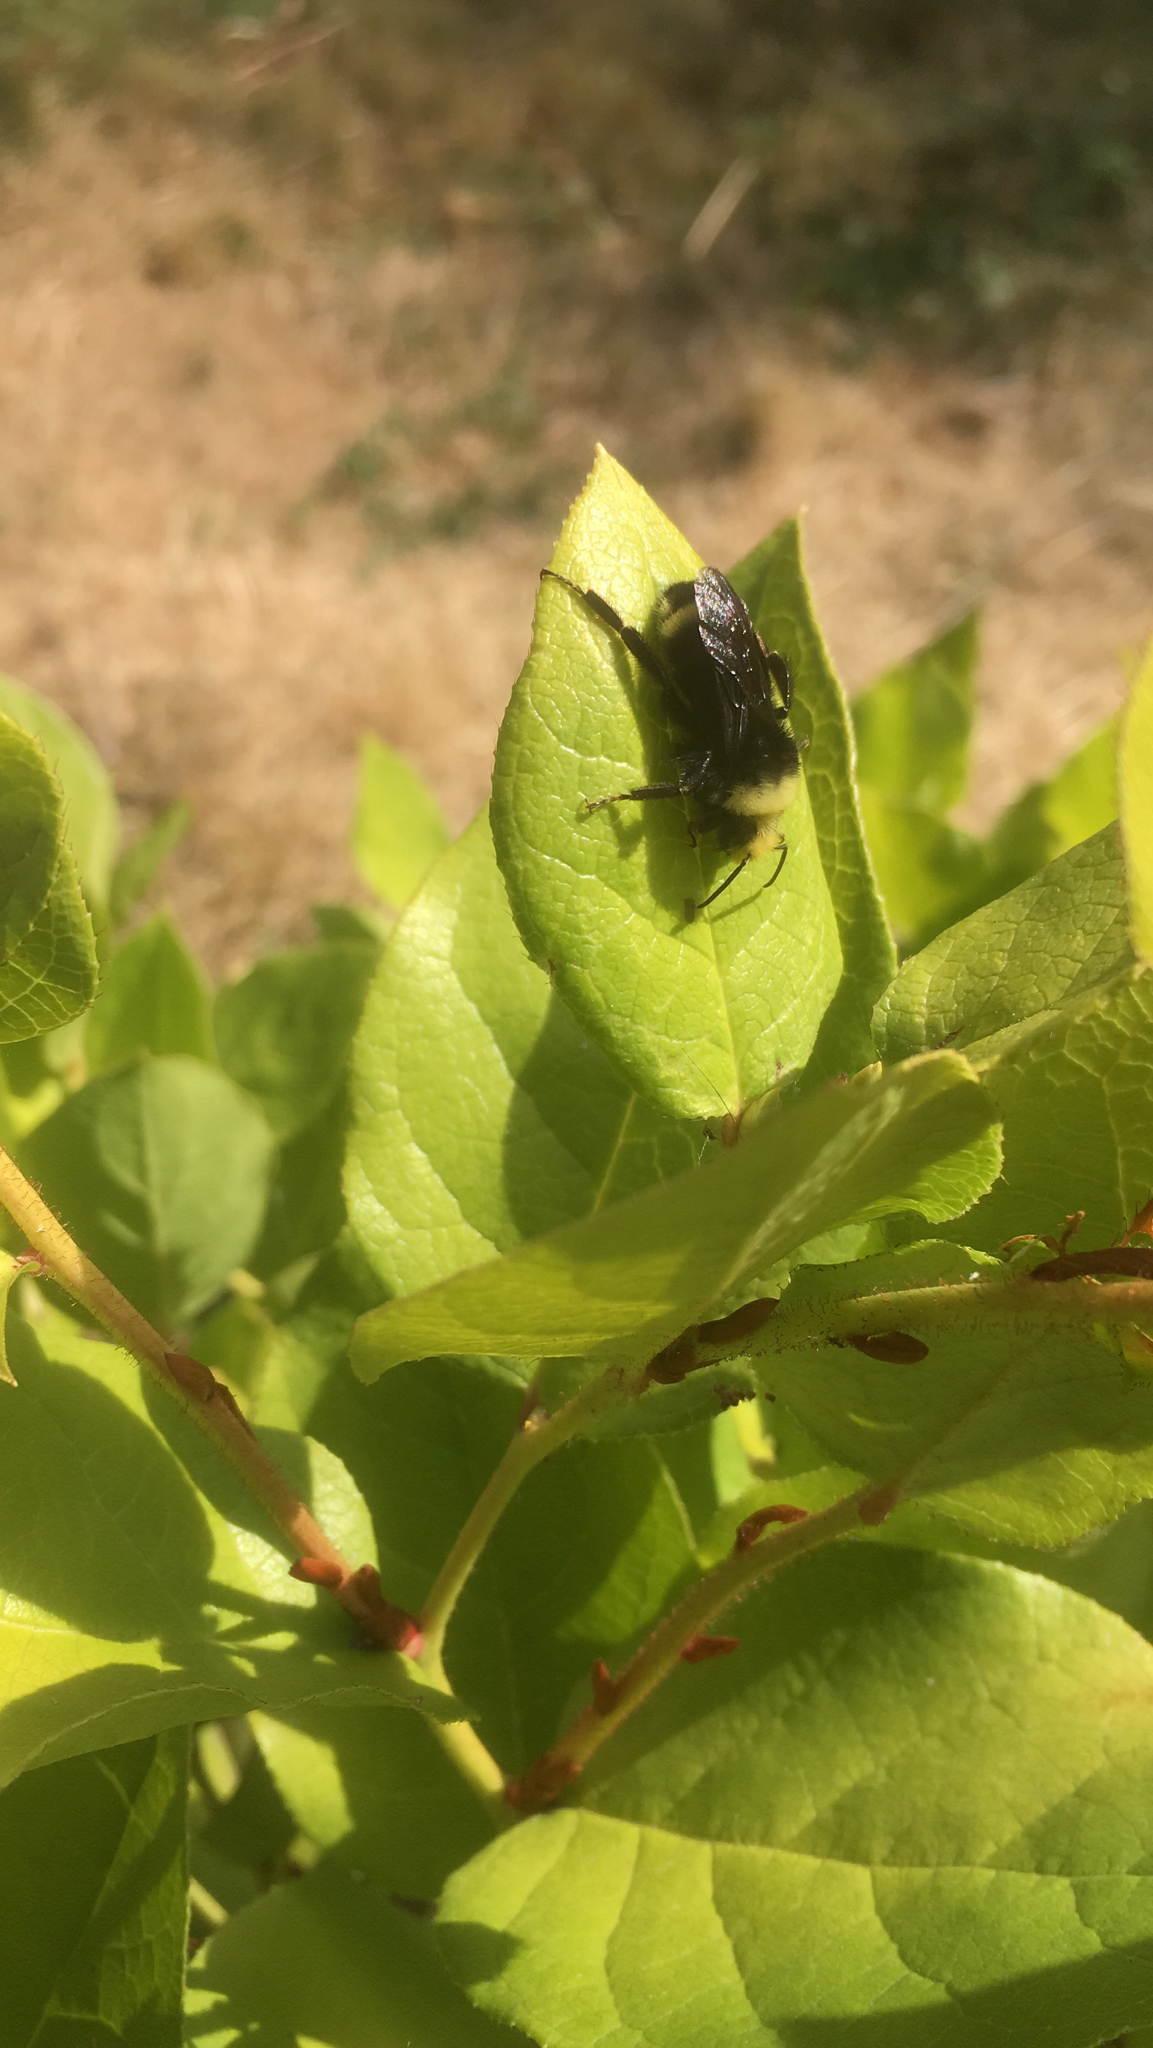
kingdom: Animalia
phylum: Arthropoda
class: Insecta
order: Hymenoptera
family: Apidae
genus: Bombus
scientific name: Bombus vosnesenskii
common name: Vosnesensky bumble bee
